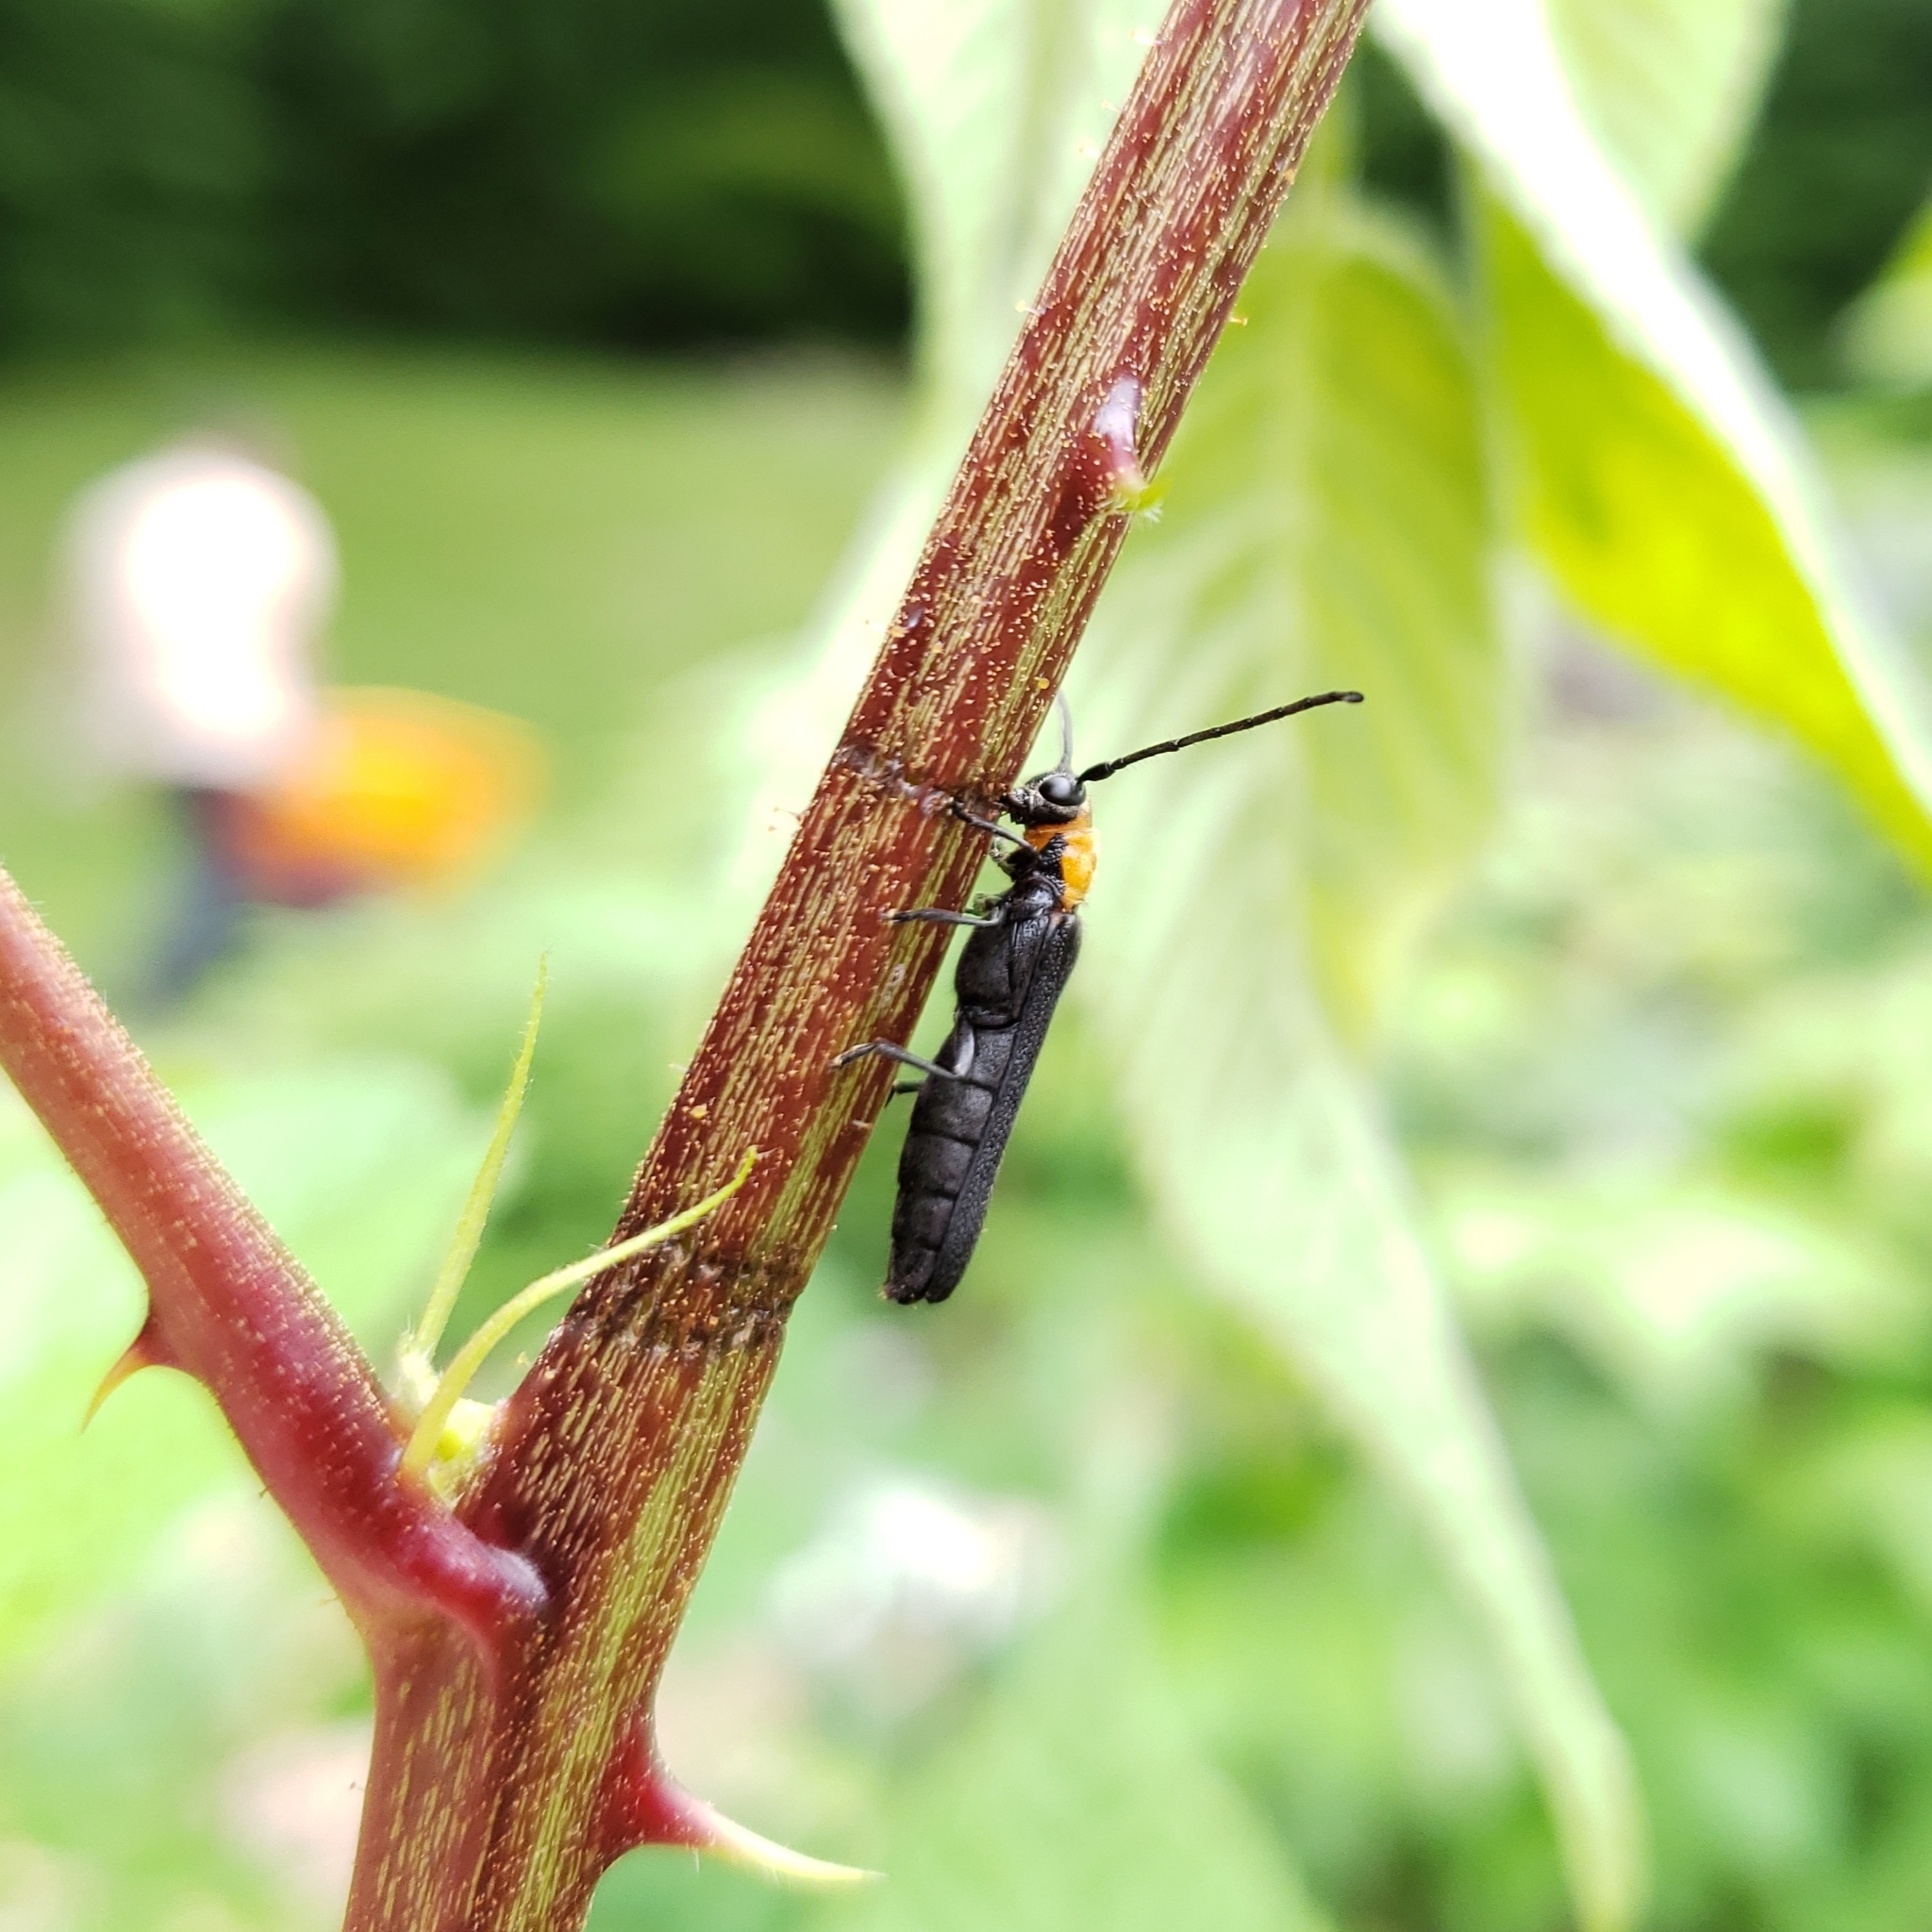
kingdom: Animalia
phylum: Arthropoda
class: Insecta
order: Coleoptera
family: Cerambycidae
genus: Oberea
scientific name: Oberea affinis
